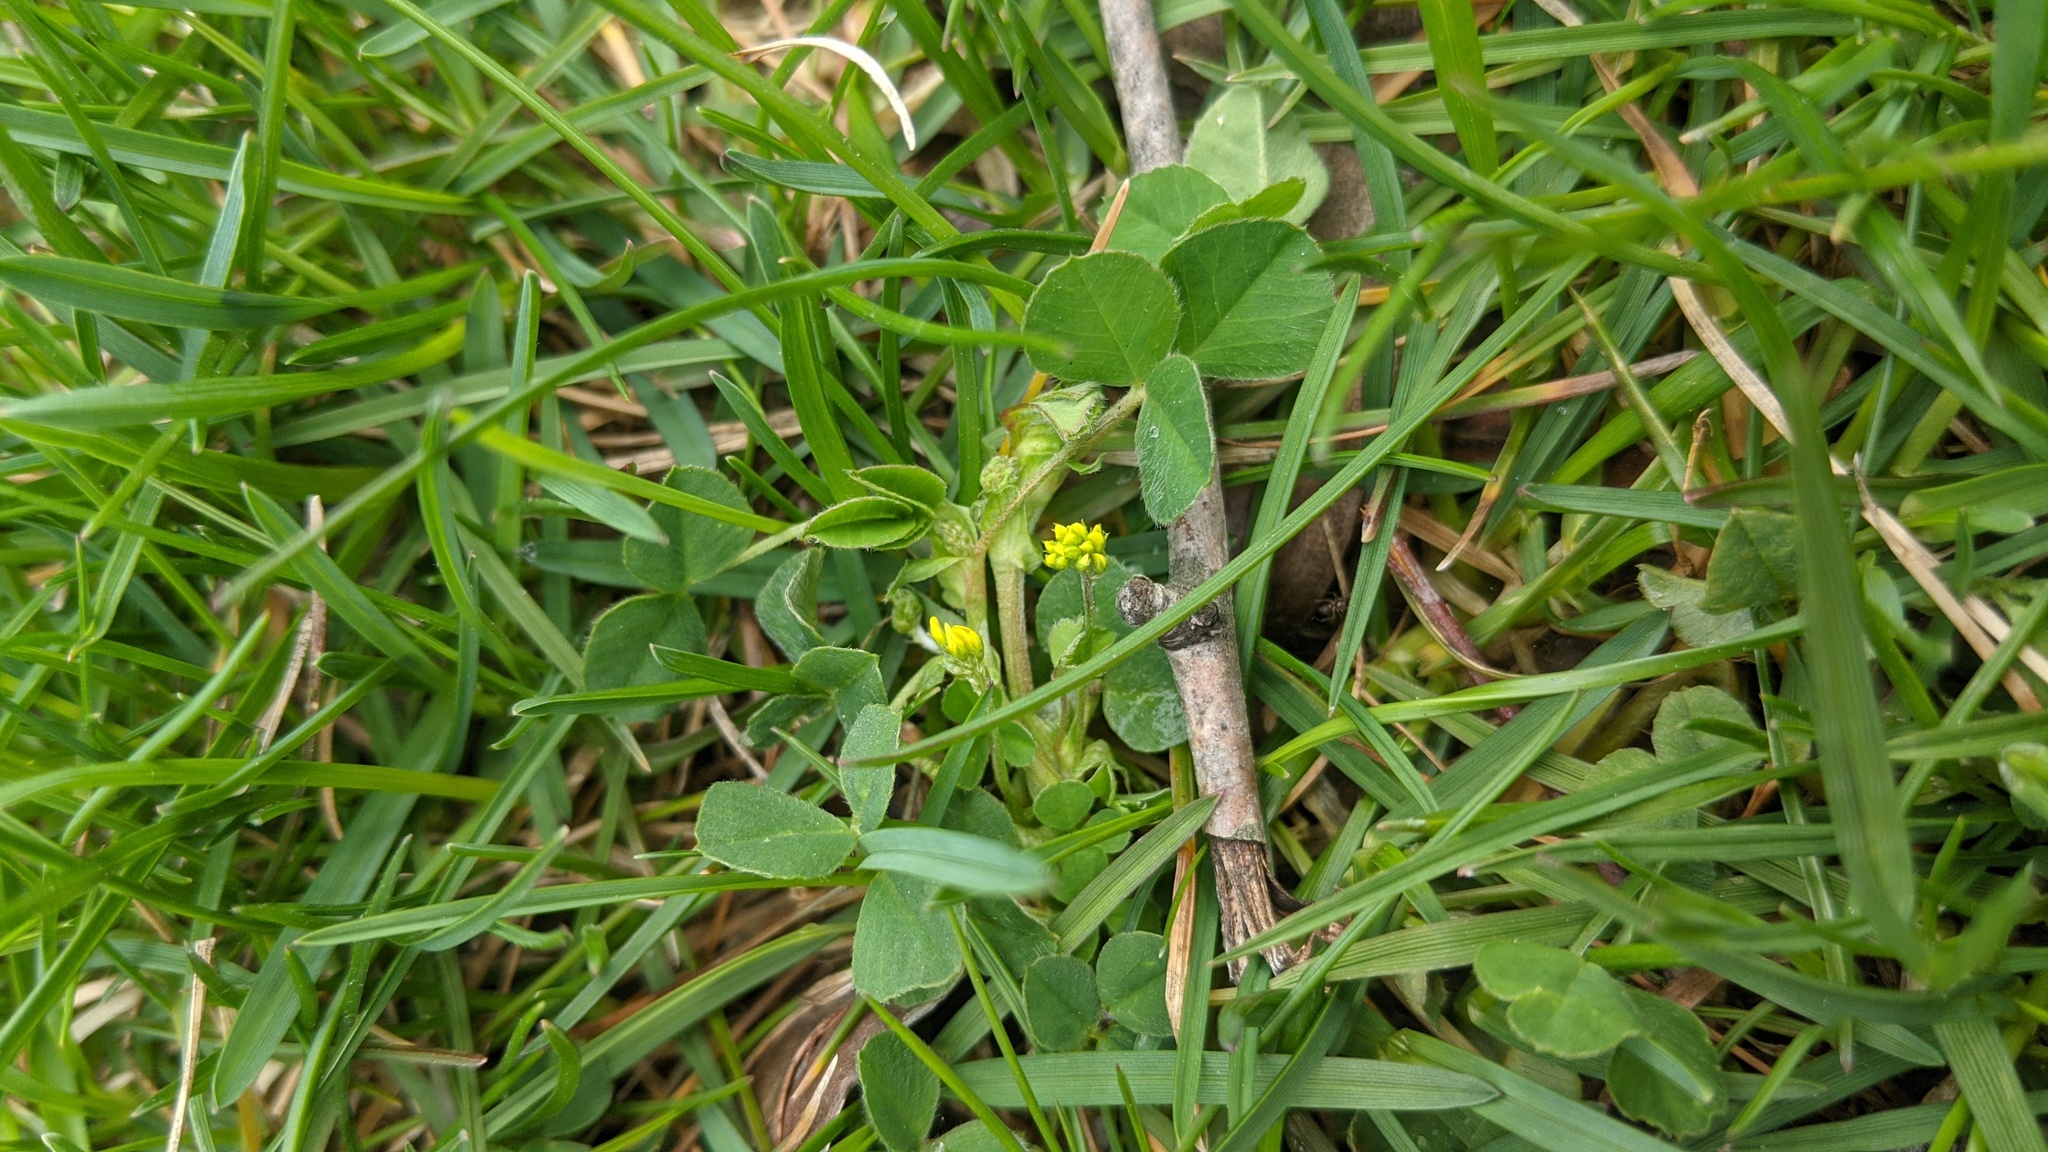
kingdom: Plantae
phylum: Tracheophyta
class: Magnoliopsida
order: Fabales
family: Fabaceae
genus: Medicago
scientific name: Medicago lupulina
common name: Black medick
